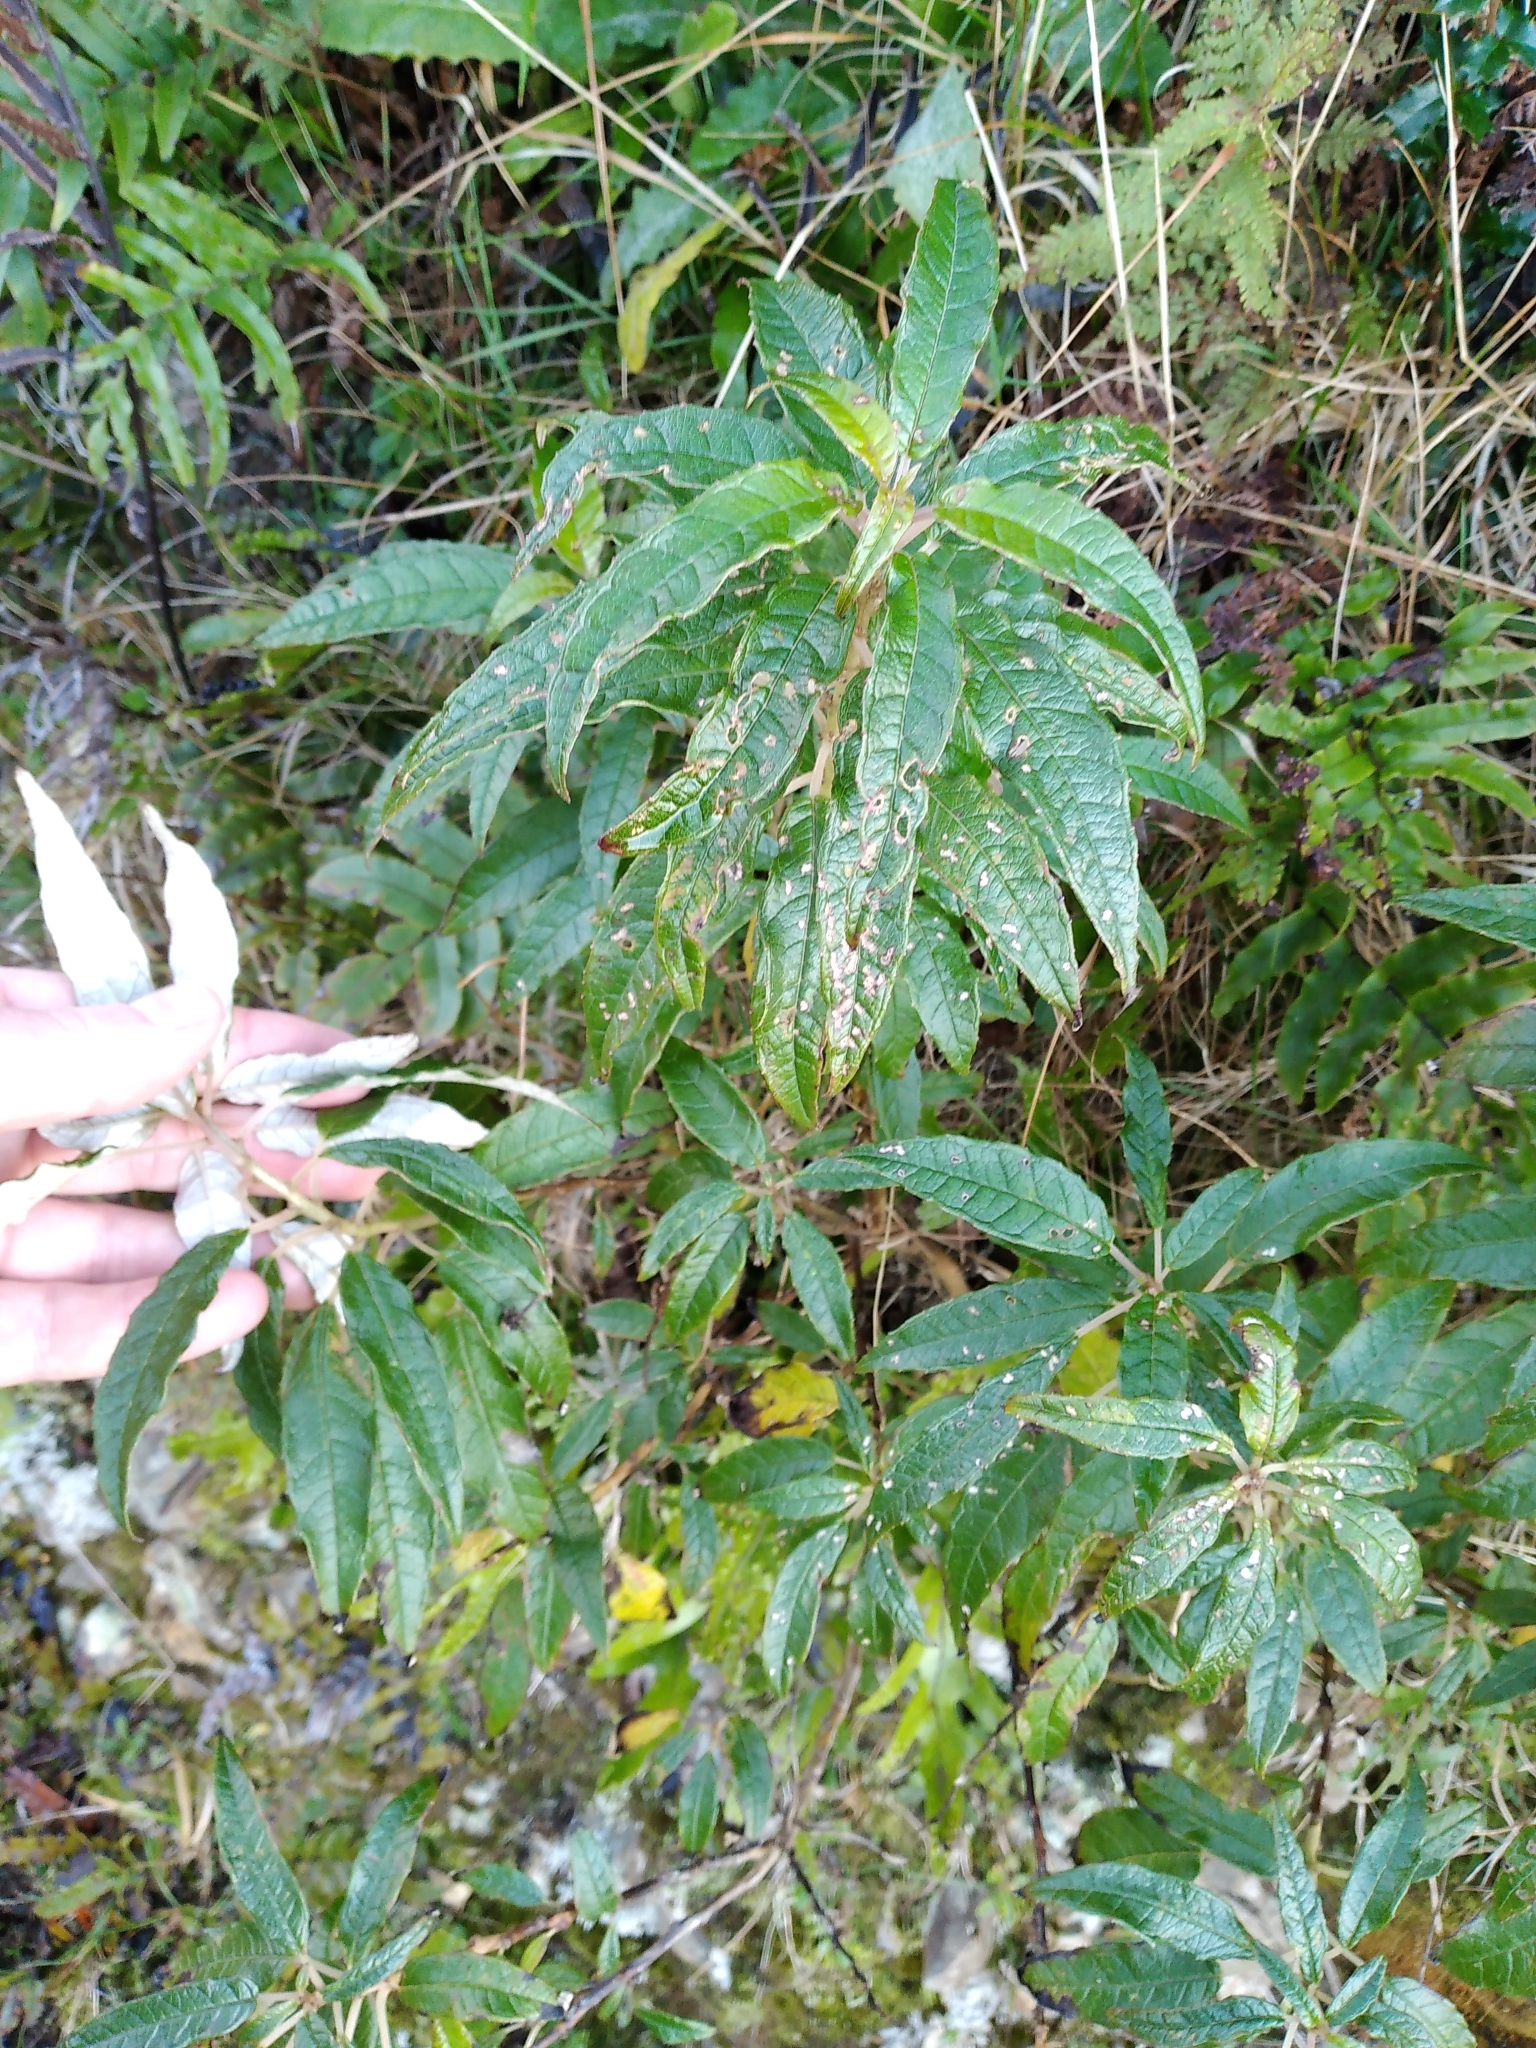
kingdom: Plantae
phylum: Tracheophyta
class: Magnoliopsida
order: Myrtales
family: Onagraceae
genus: Fuchsia
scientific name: Fuchsia excorticata
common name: Tree fuchsia
